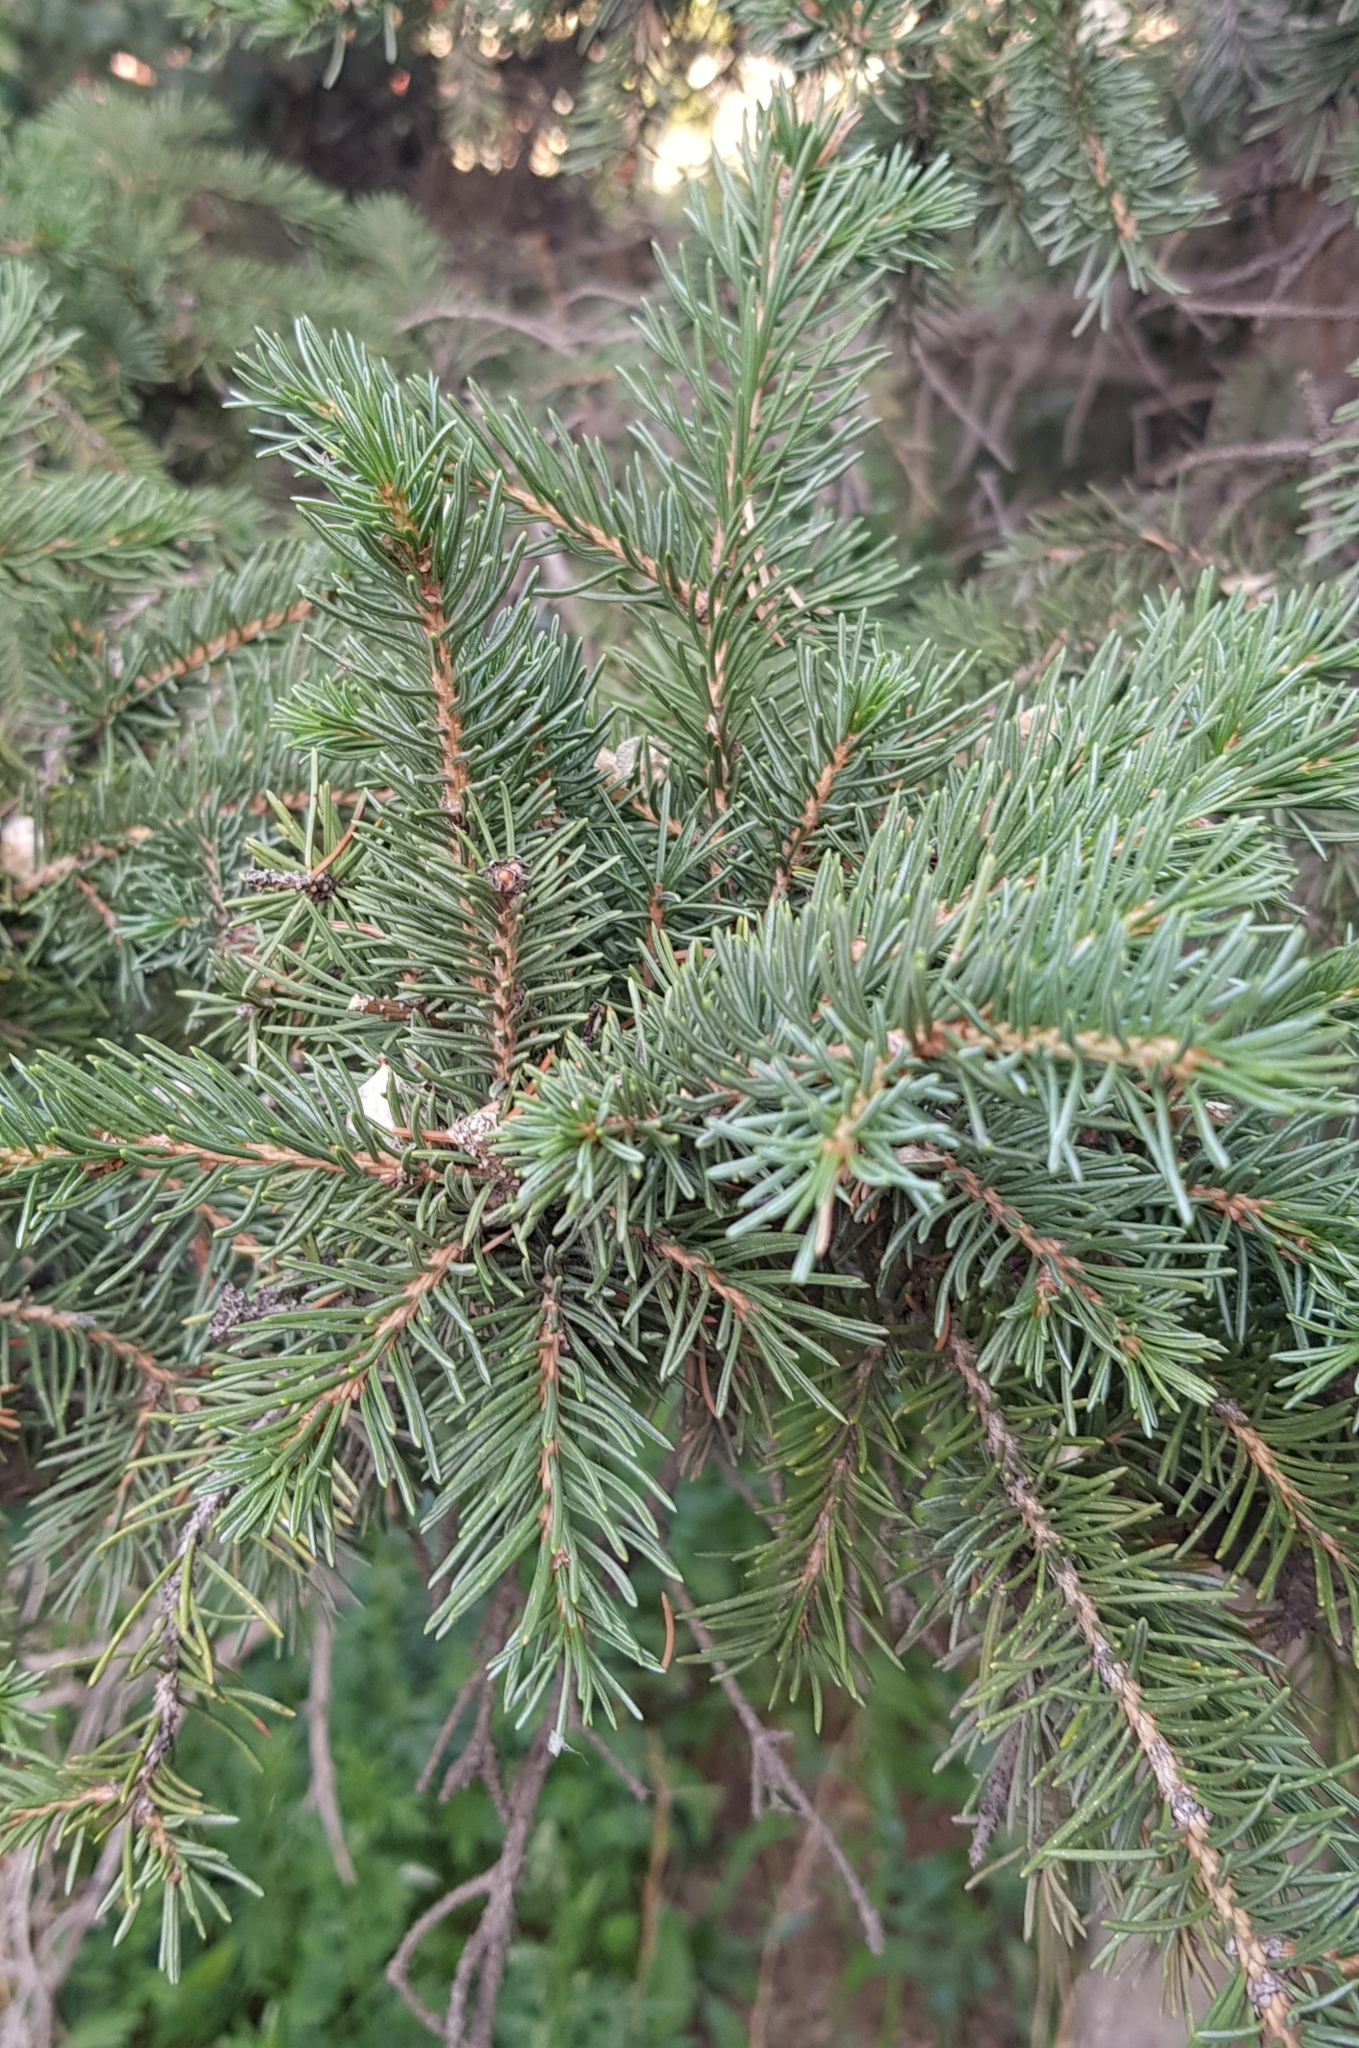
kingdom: Plantae
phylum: Tracheophyta
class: Pinopsida
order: Pinales
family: Pinaceae
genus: Picea
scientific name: Picea obovata
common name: Siberian spruce
